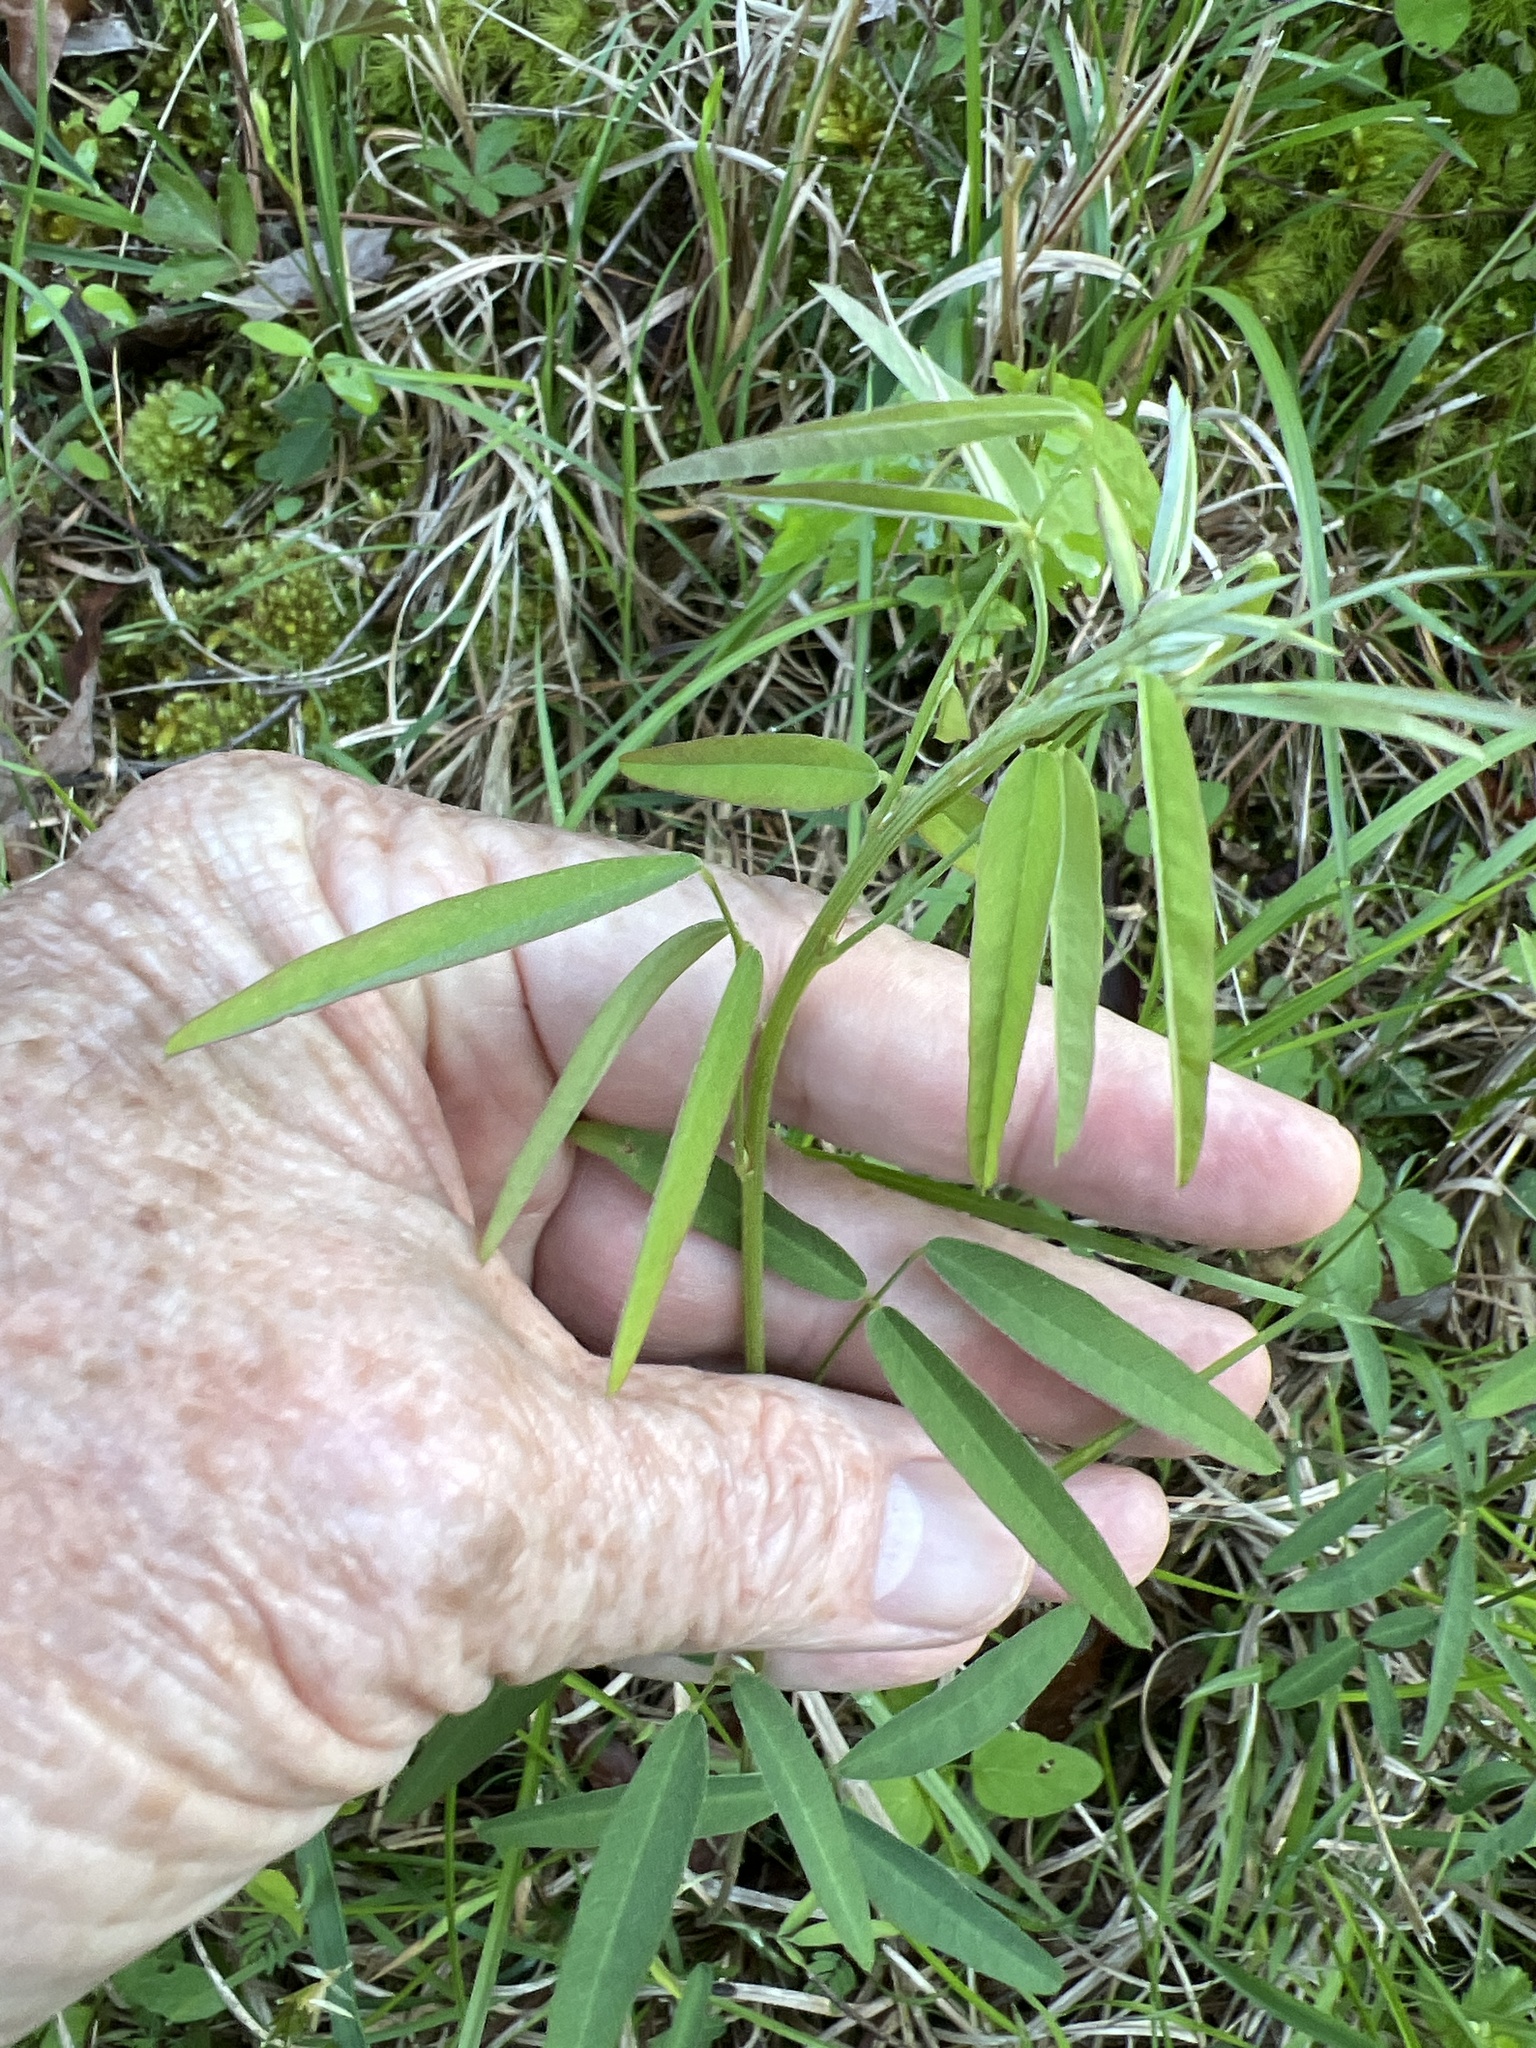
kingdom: Plantae
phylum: Tracheophyta
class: Magnoliopsida
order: Fabales
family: Fabaceae
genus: Lespedeza
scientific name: Lespedeza virginica
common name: Slender bush-clover
